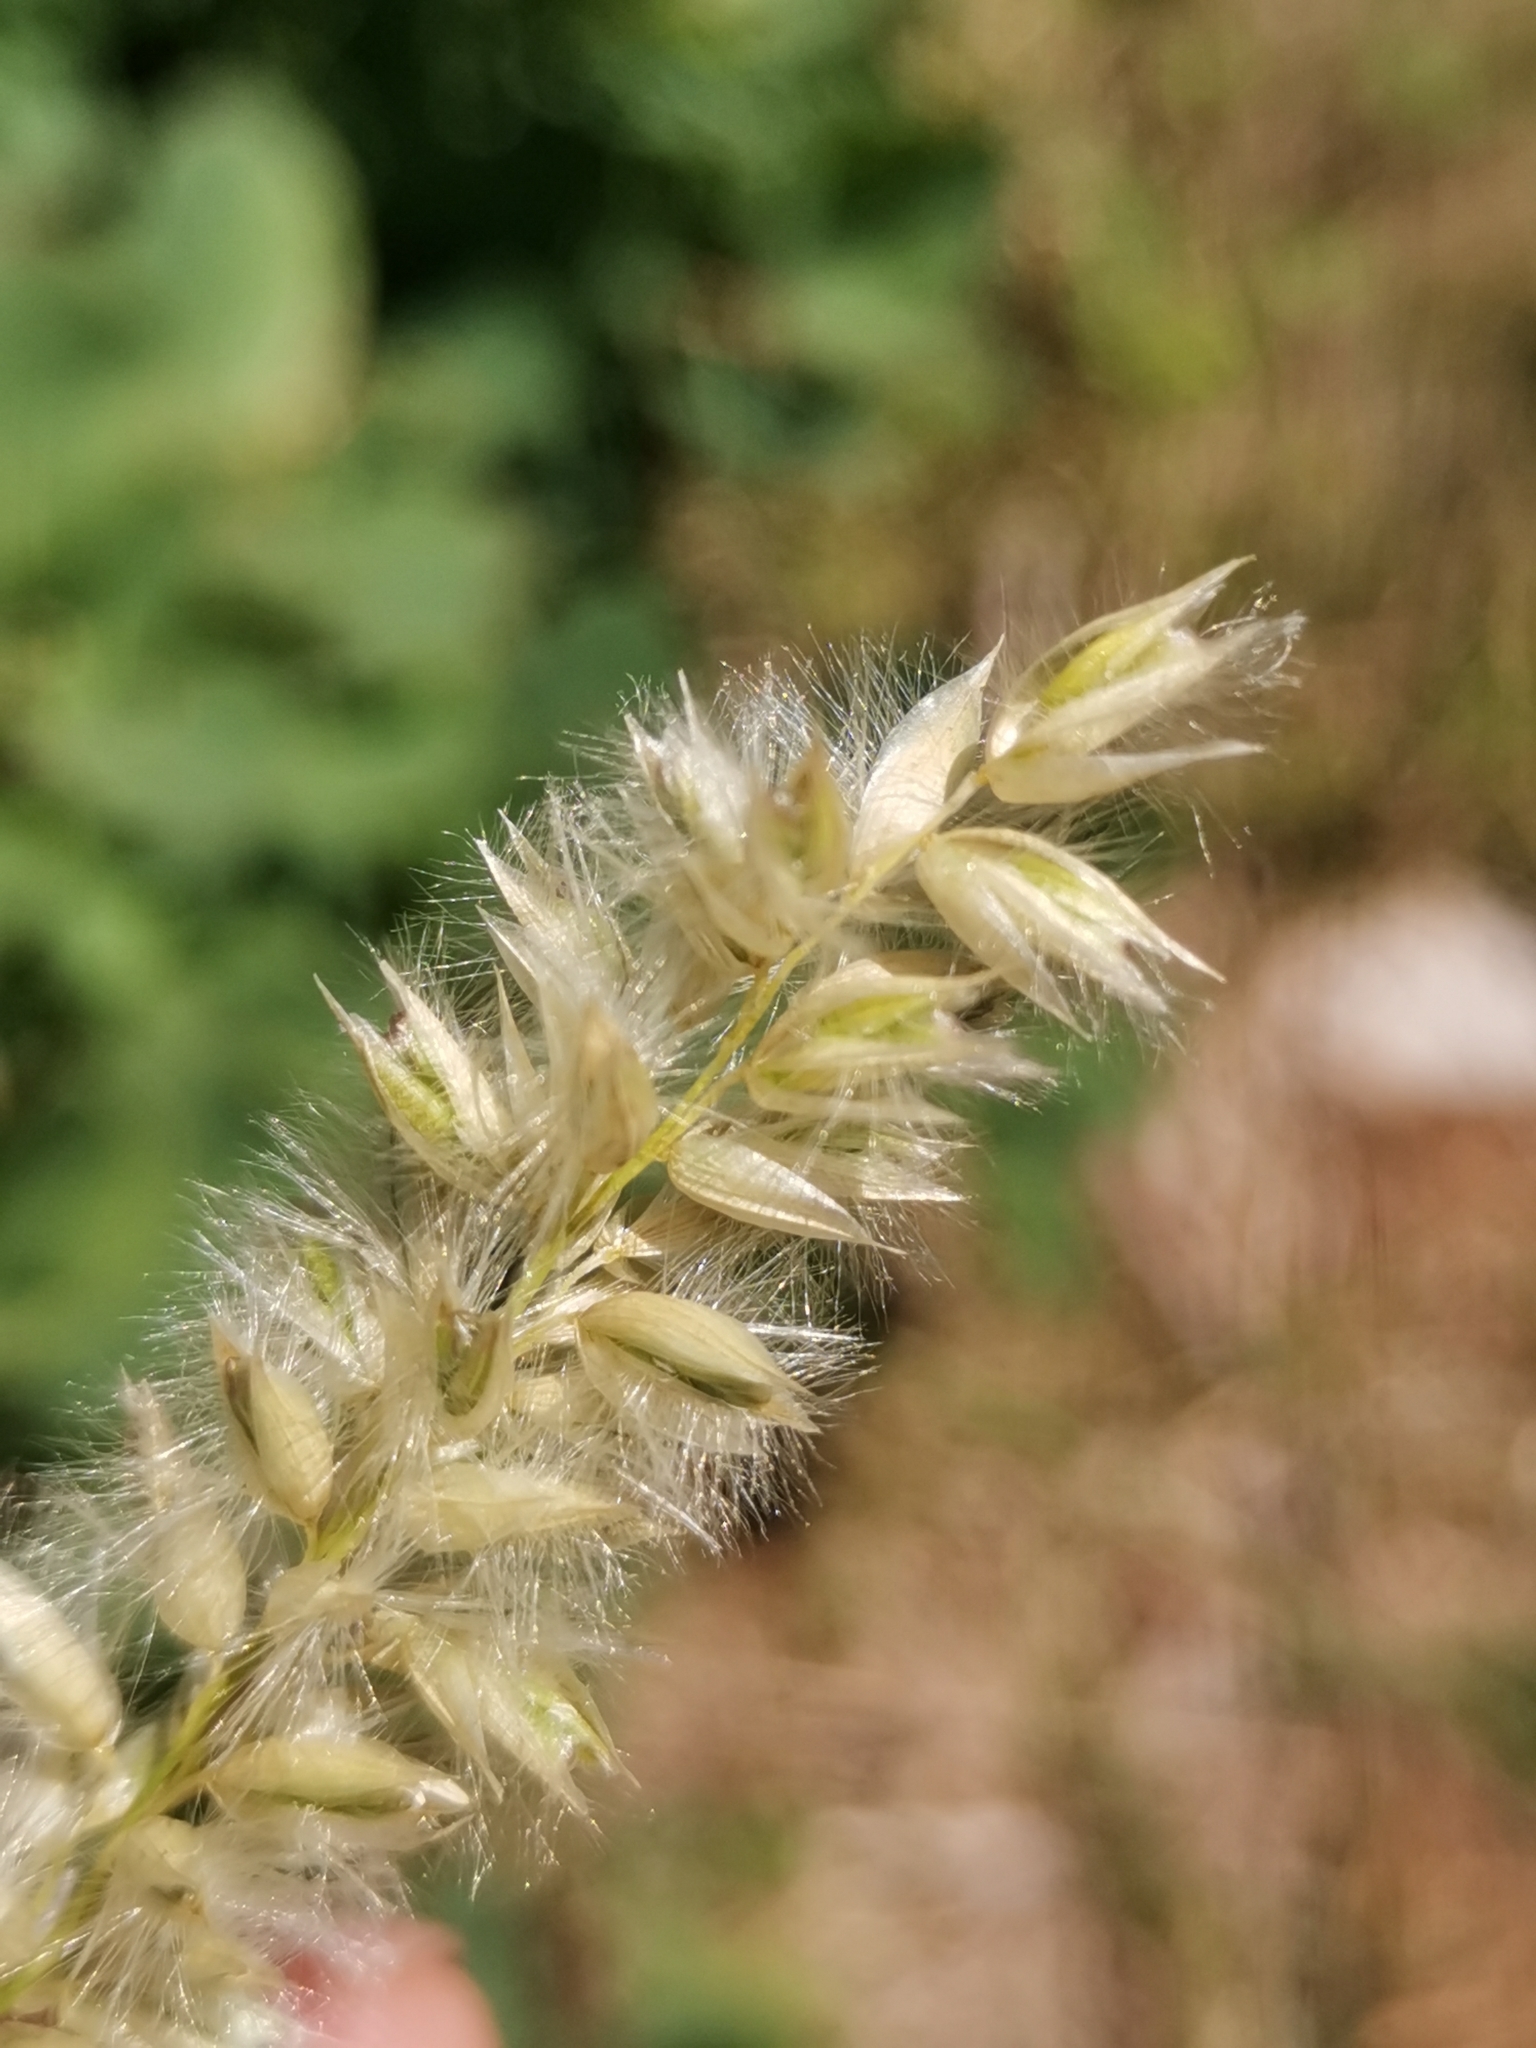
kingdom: Plantae
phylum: Tracheophyta
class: Liliopsida
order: Poales
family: Poaceae
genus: Melica
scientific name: Melica ciliata
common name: Hairy melicgrass
